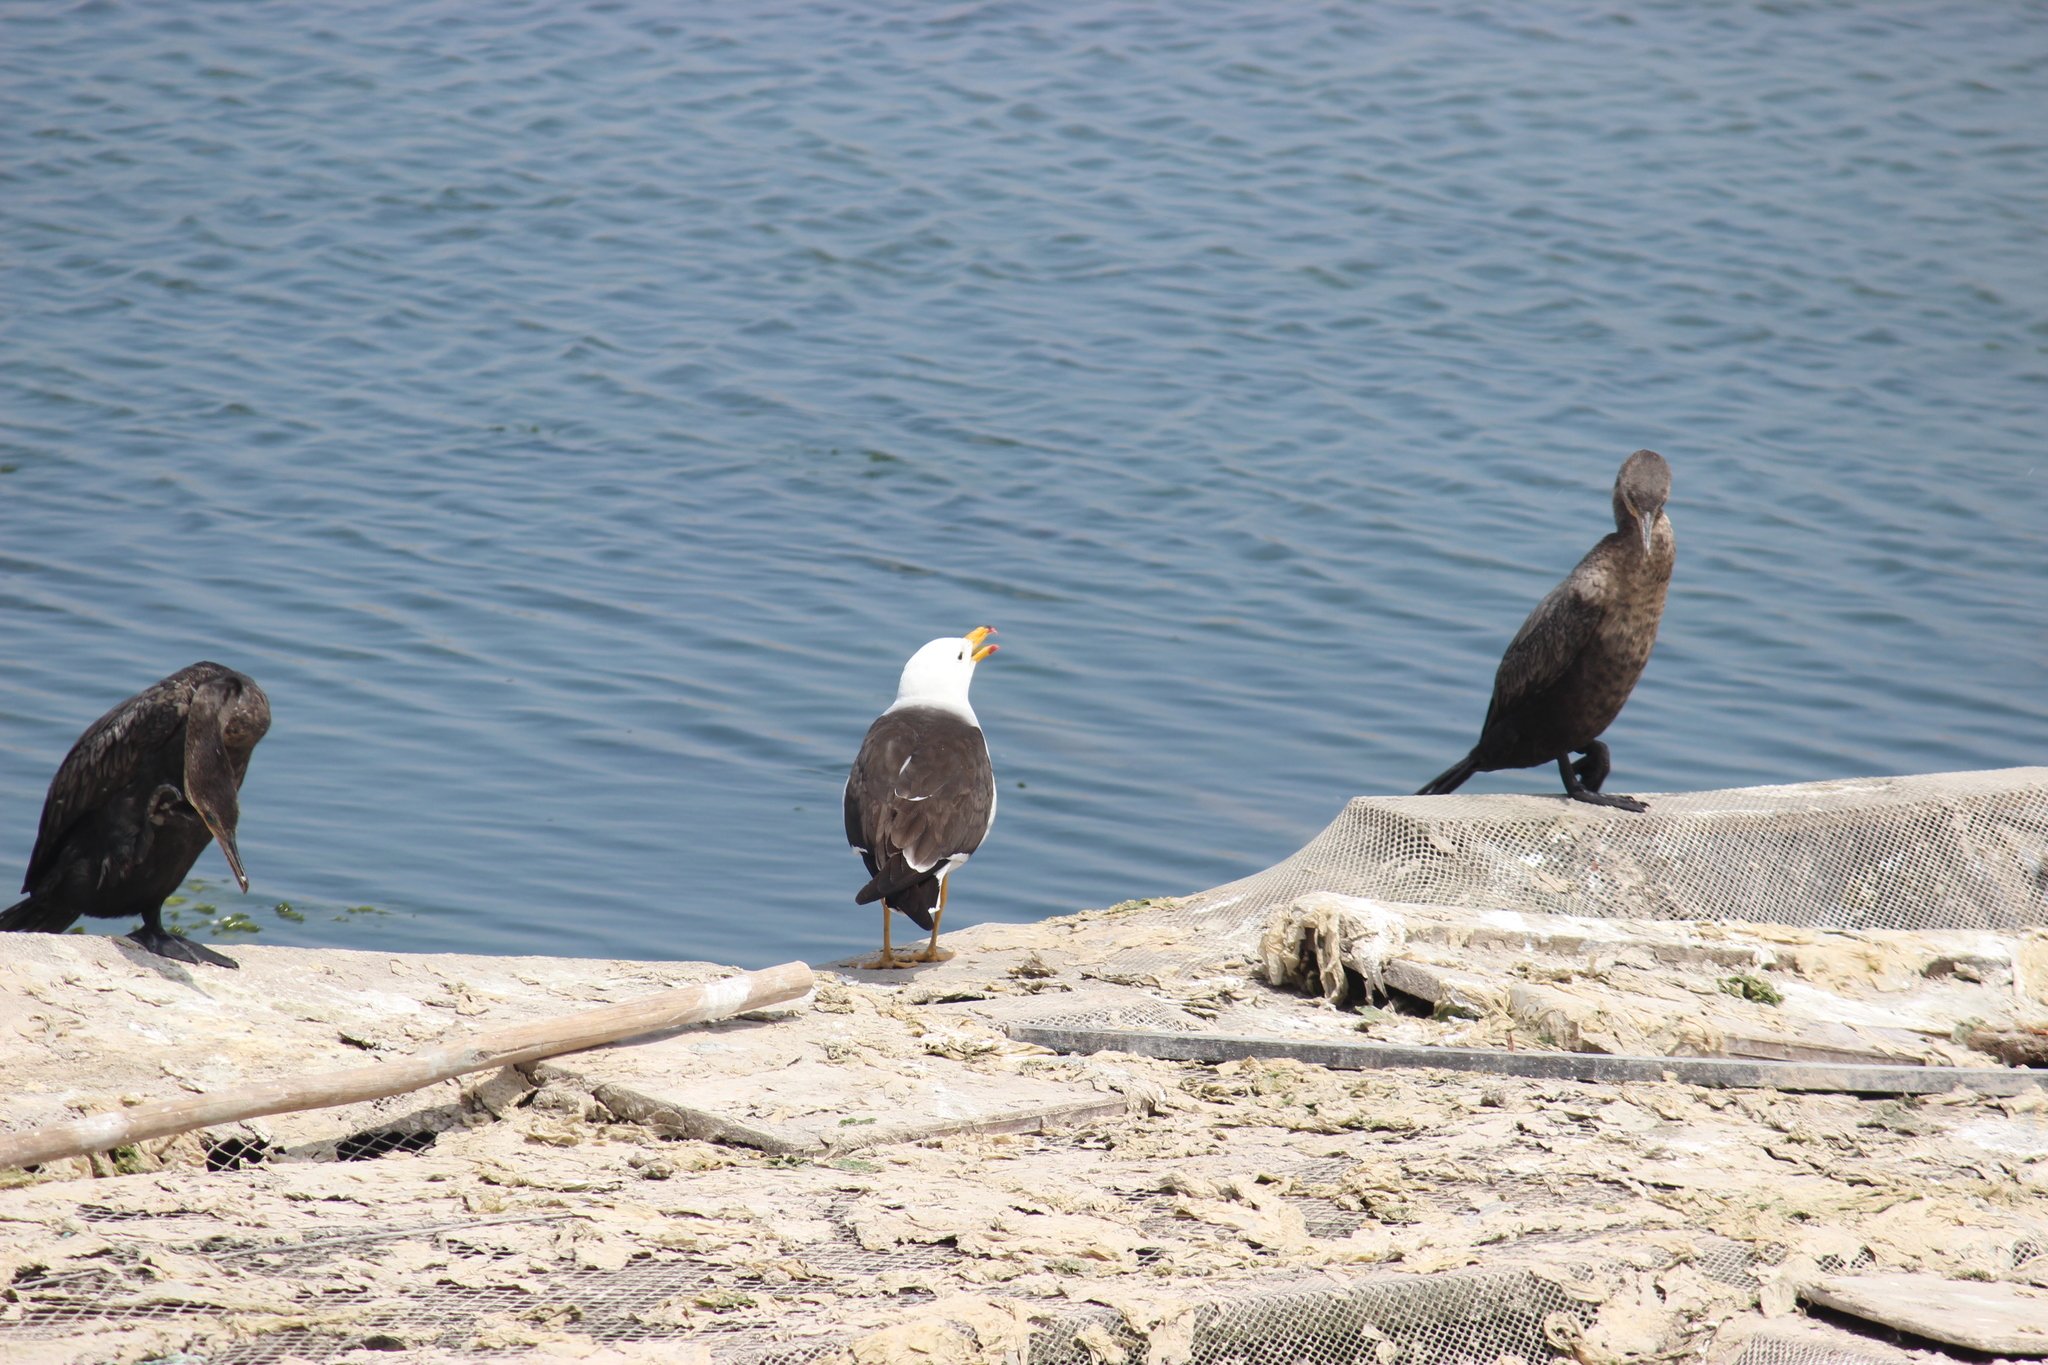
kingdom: Animalia
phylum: Chordata
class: Aves
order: Charadriiformes
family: Laridae
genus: Larus
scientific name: Larus belcheri
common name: Belcher's gull
